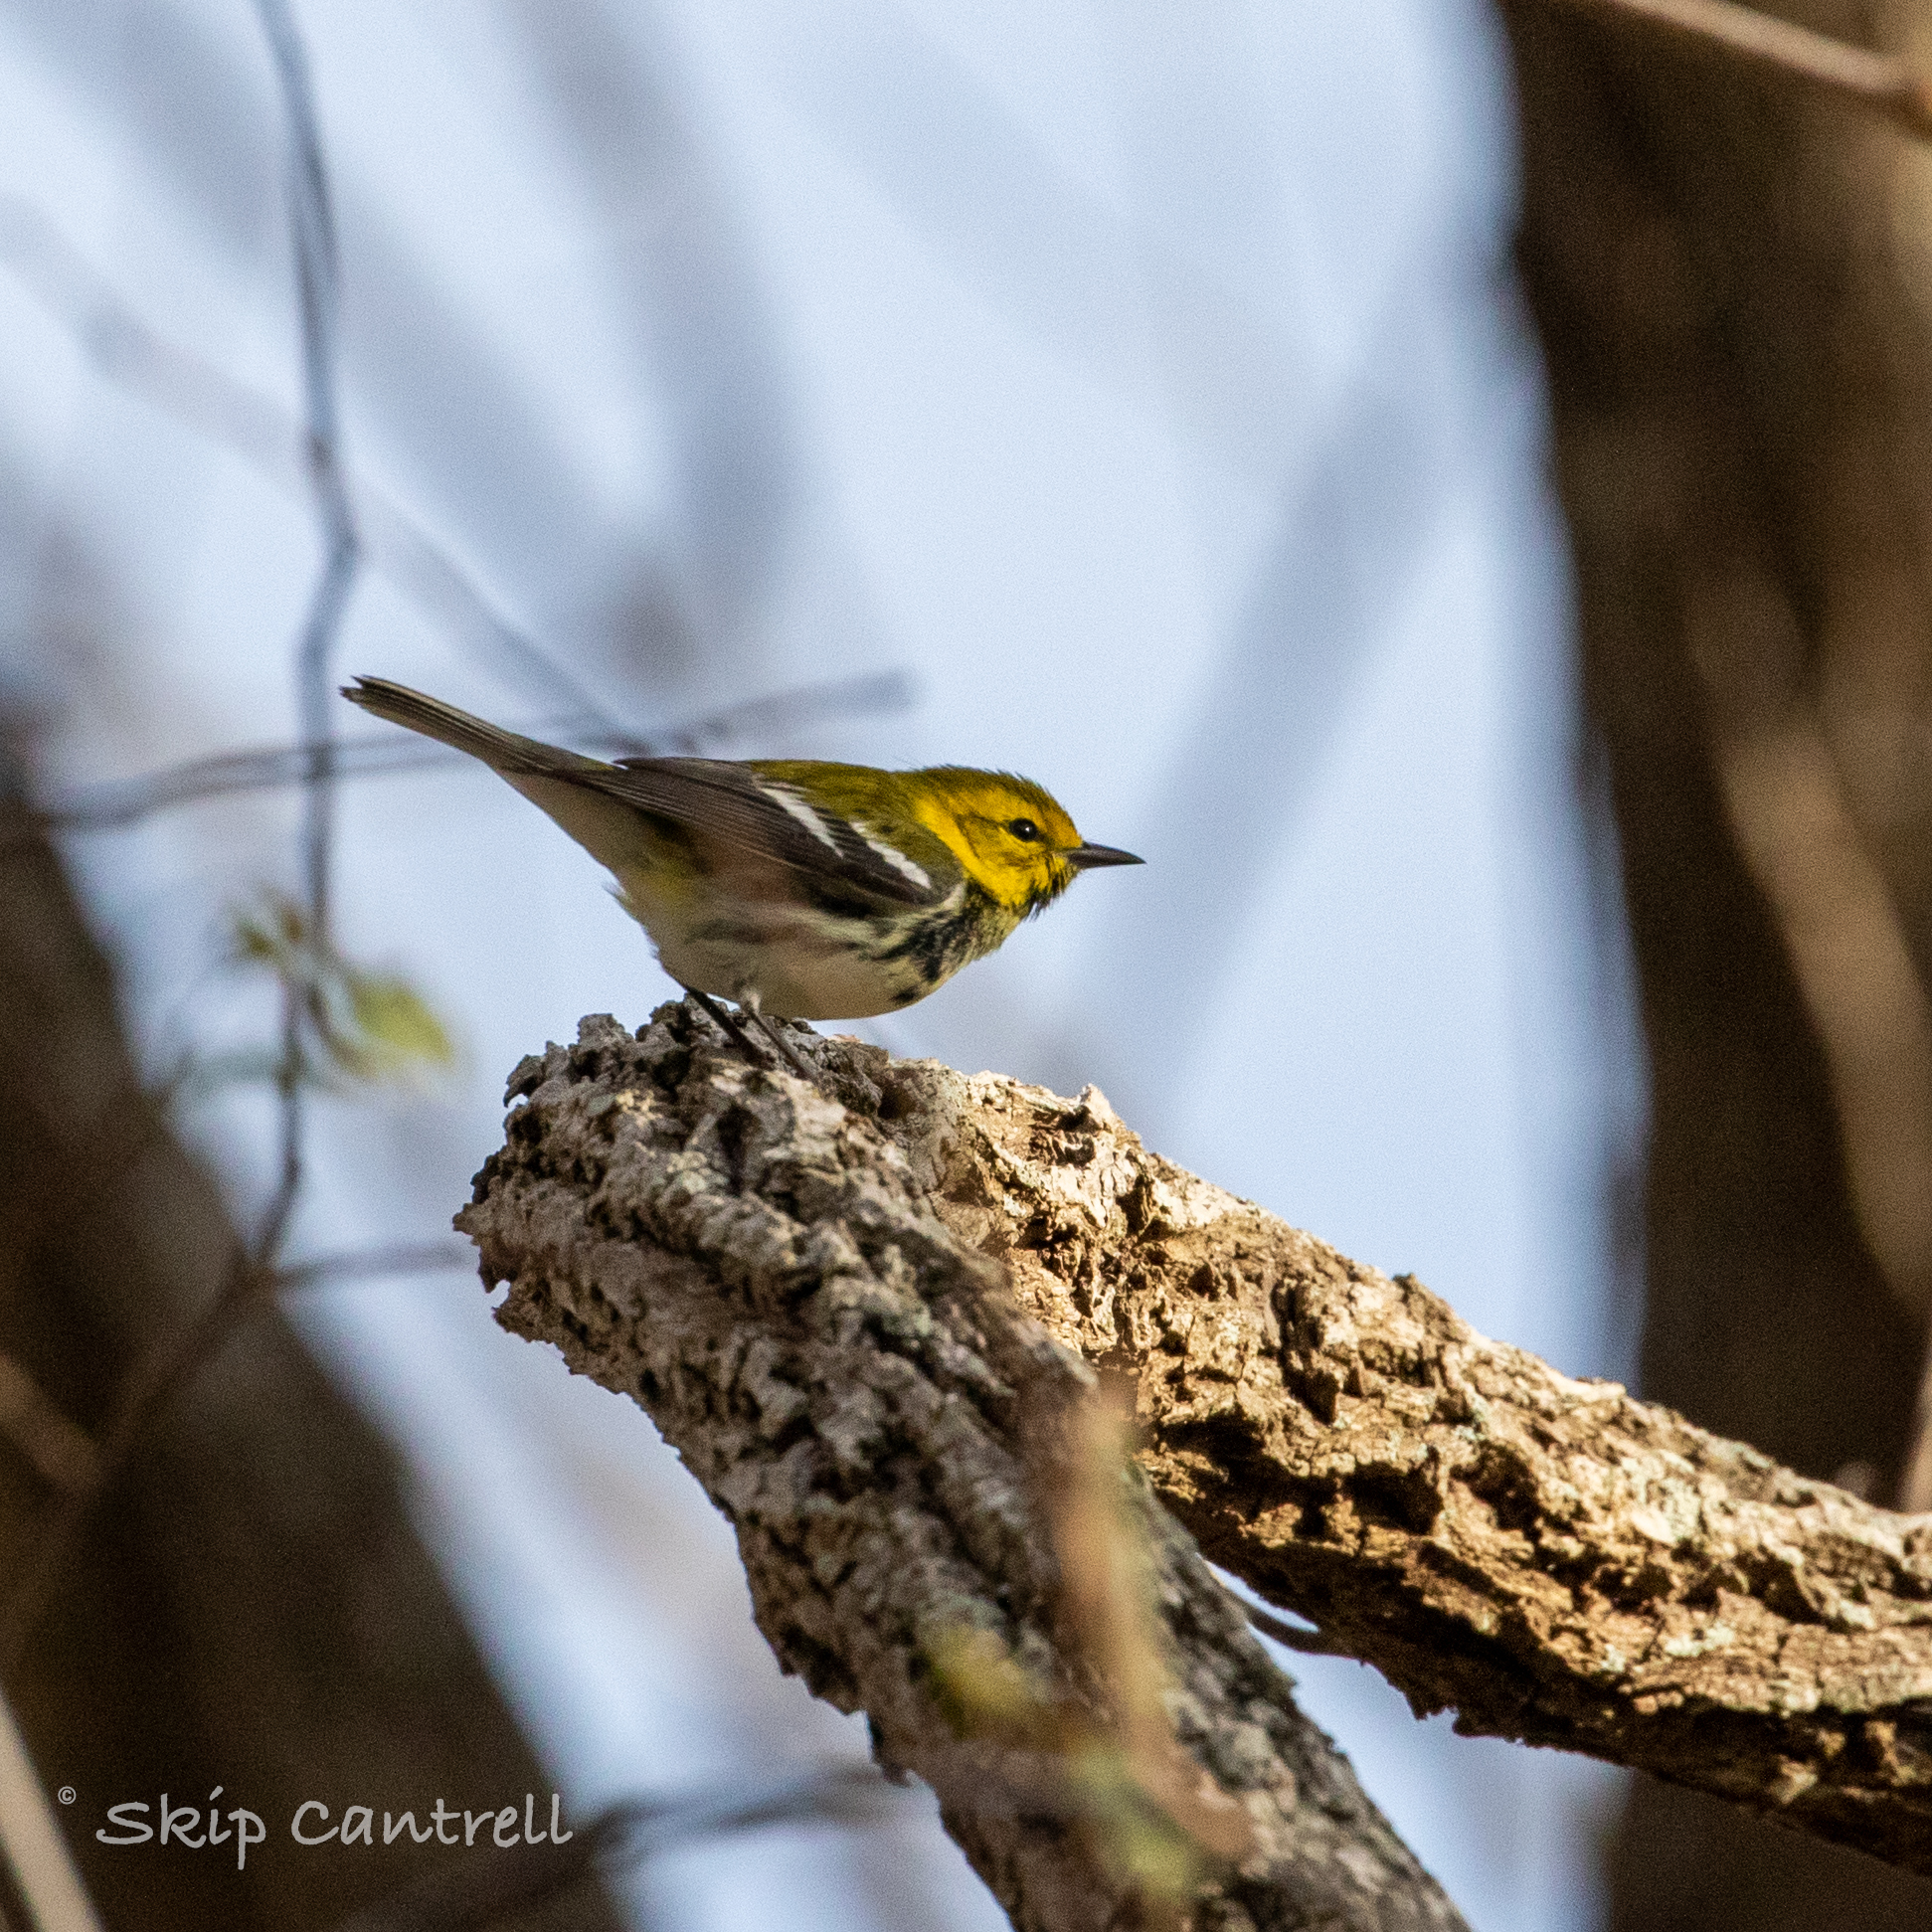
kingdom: Animalia
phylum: Chordata
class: Aves
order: Passeriformes
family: Parulidae
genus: Setophaga
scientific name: Setophaga virens
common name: Black-throated green warbler
